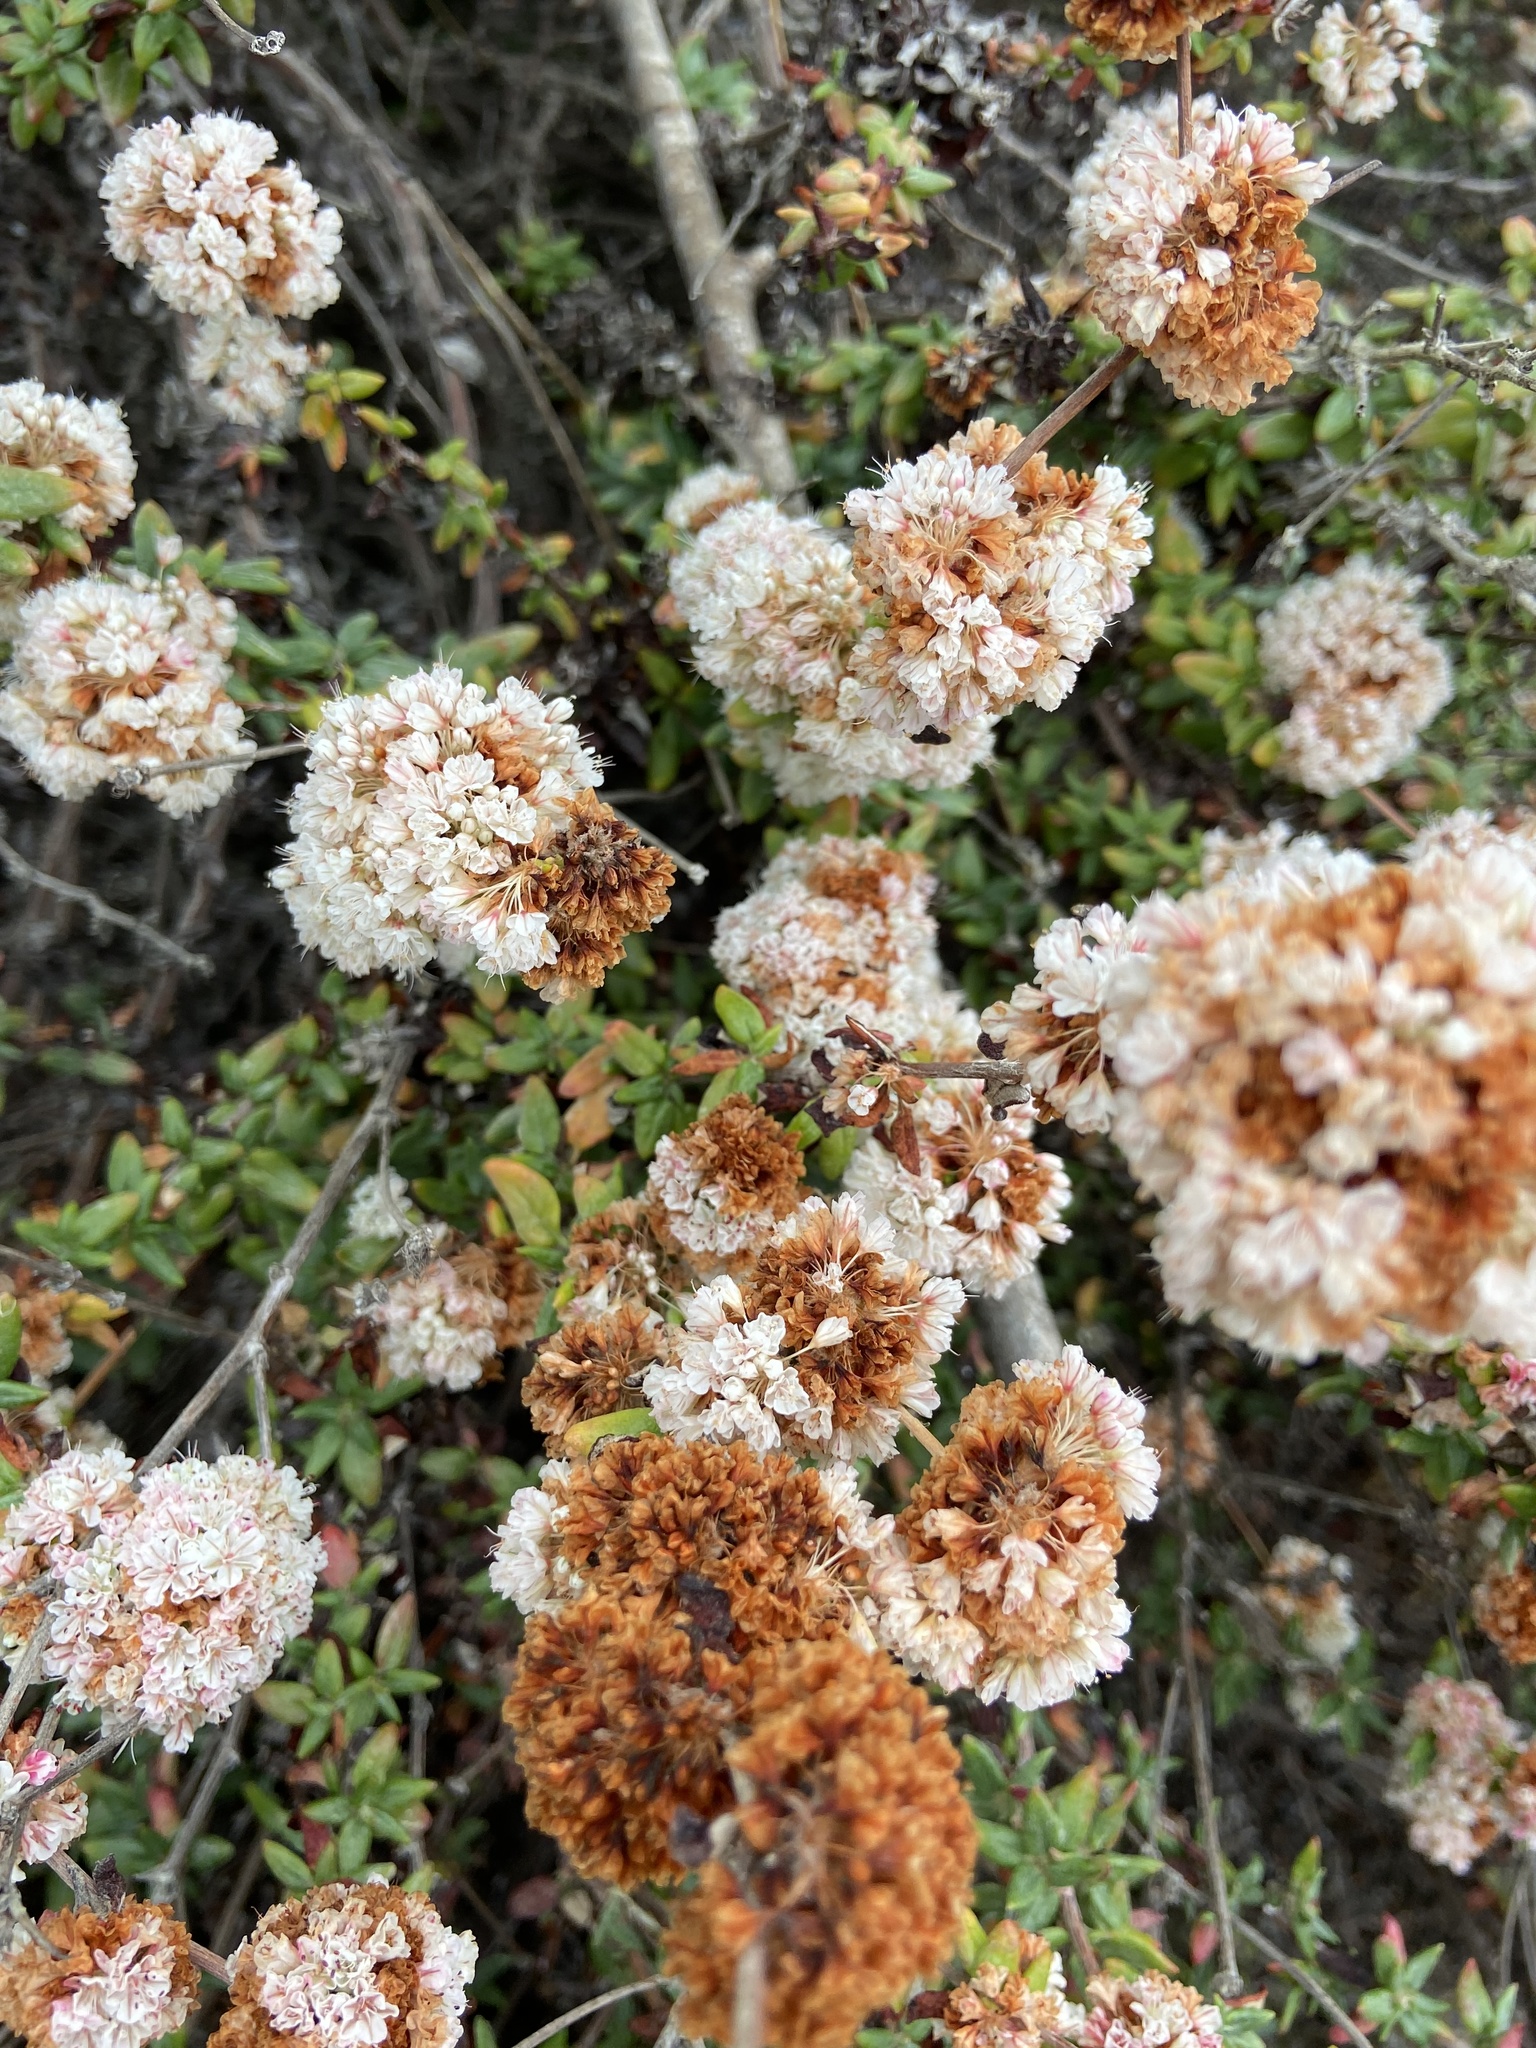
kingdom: Plantae
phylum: Tracheophyta
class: Magnoliopsida
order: Caryophyllales
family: Polygonaceae
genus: Eriogonum
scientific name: Eriogonum parvifolium
